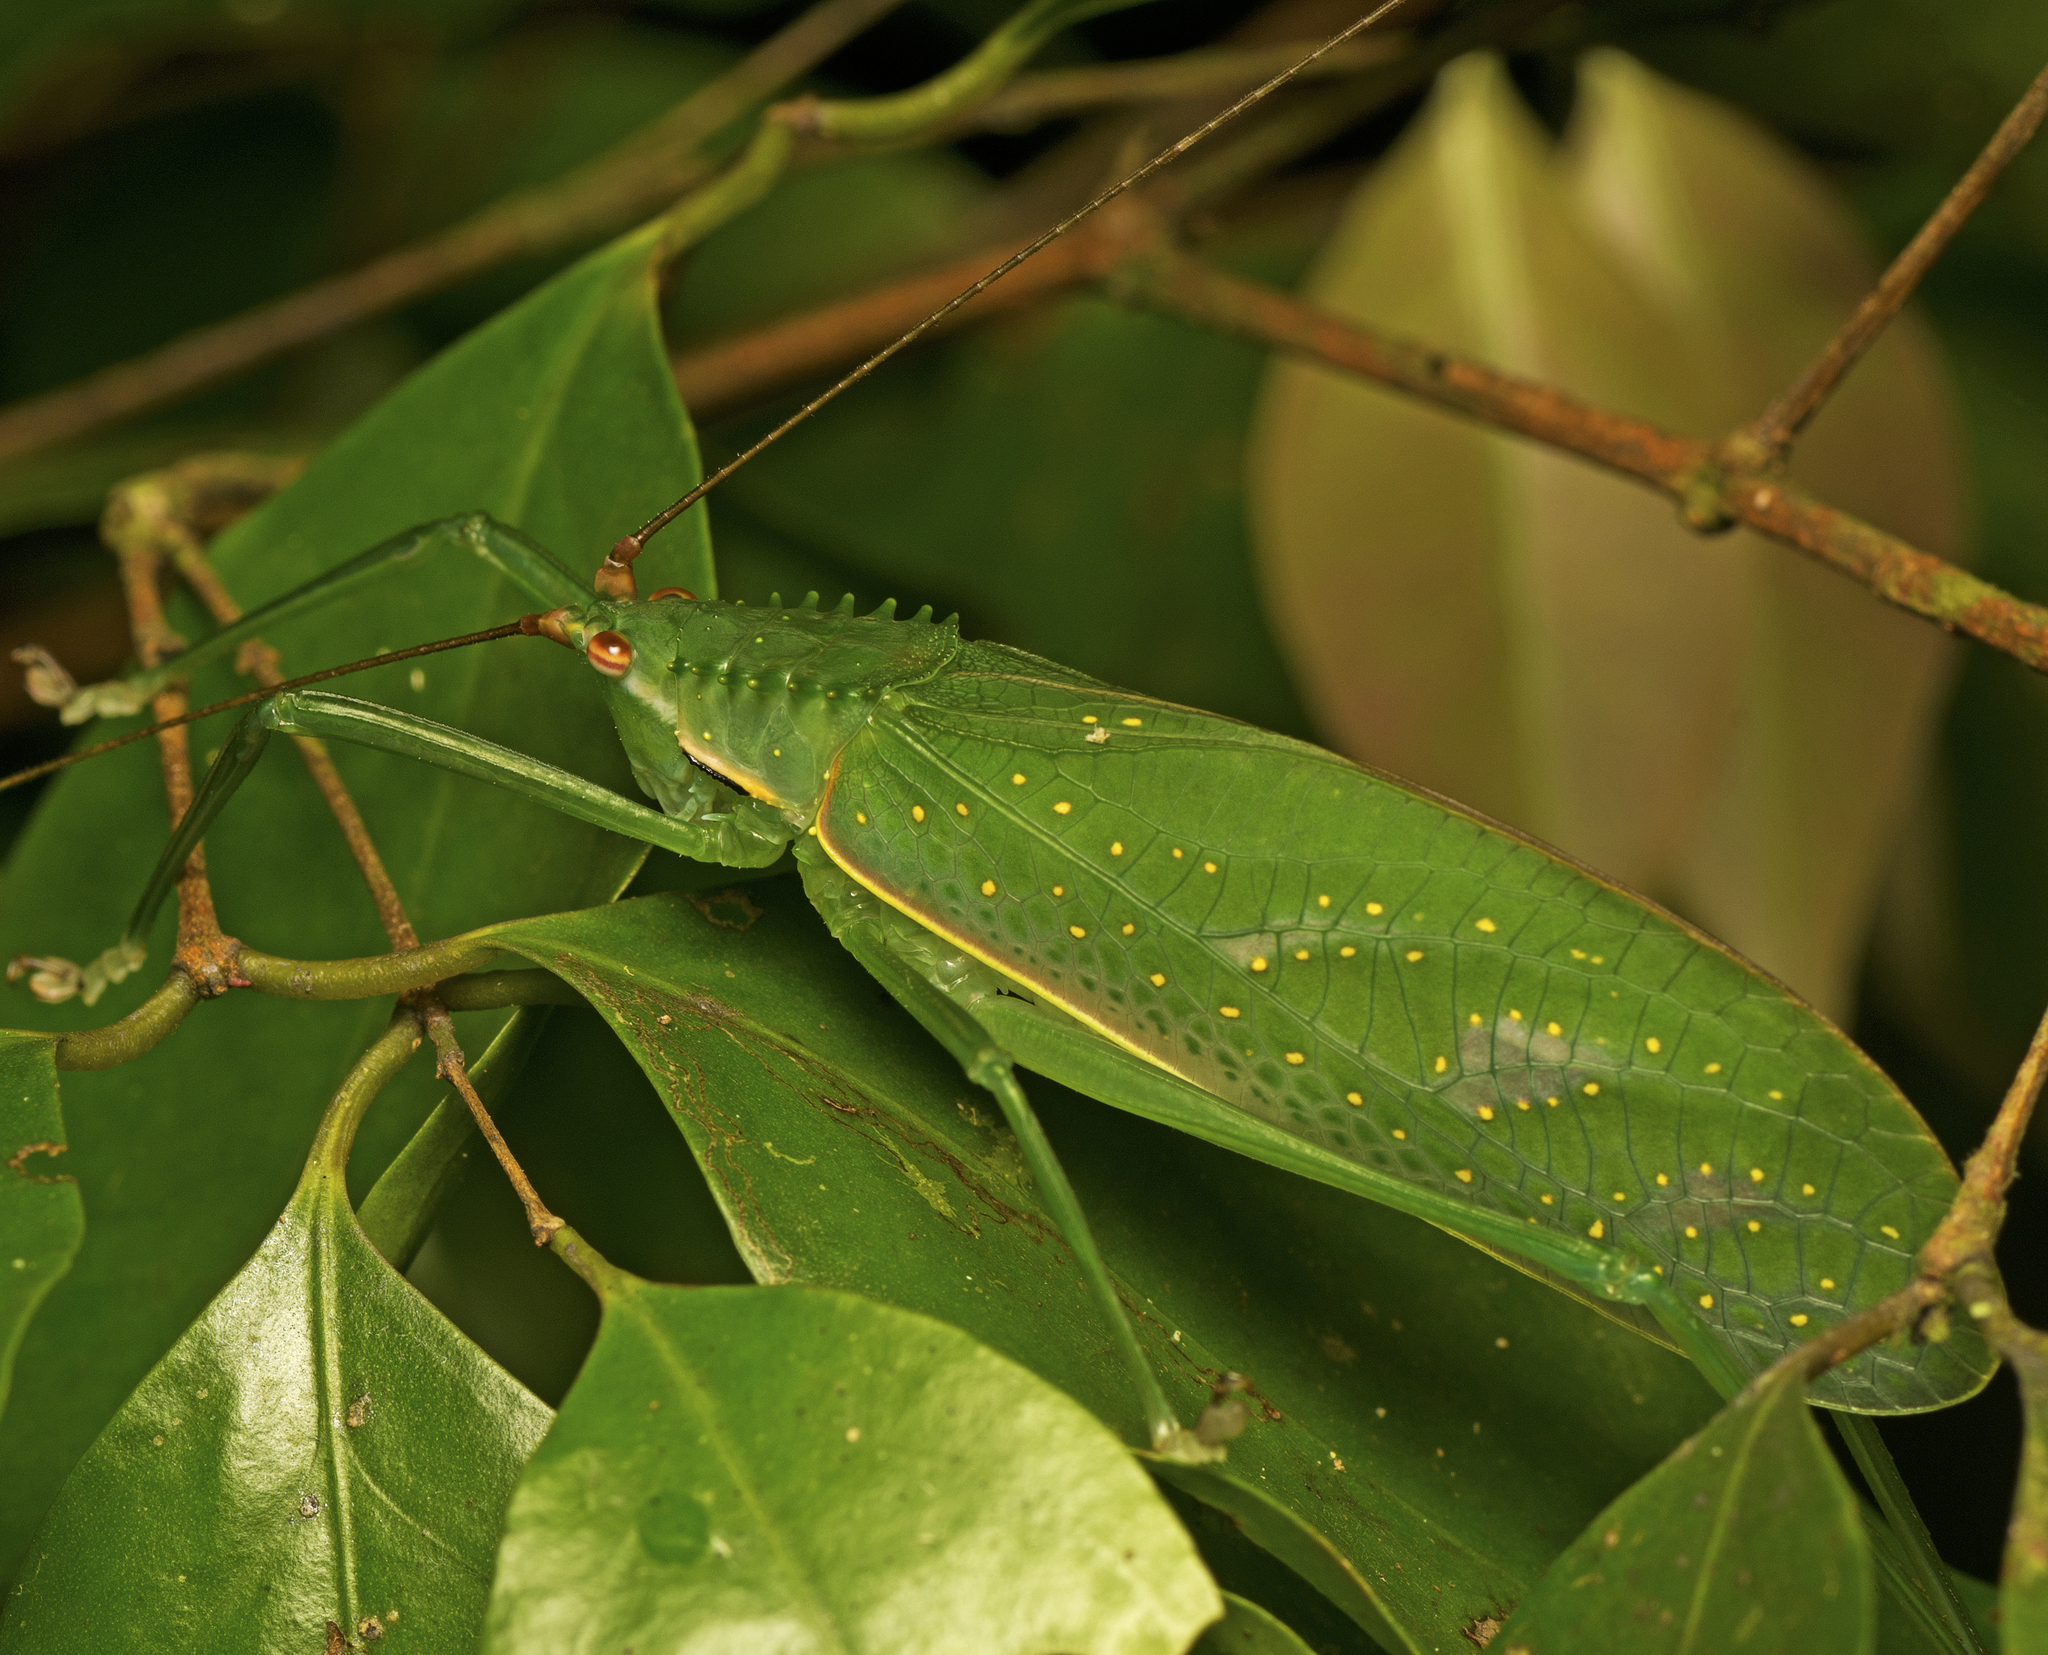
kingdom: Animalia
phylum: Arthropoda
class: Insecta
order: Orthoptera
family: Tettigoniidae
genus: Chloracantha
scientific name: Chloracantha lampra
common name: Delicate false-leaf katydid
